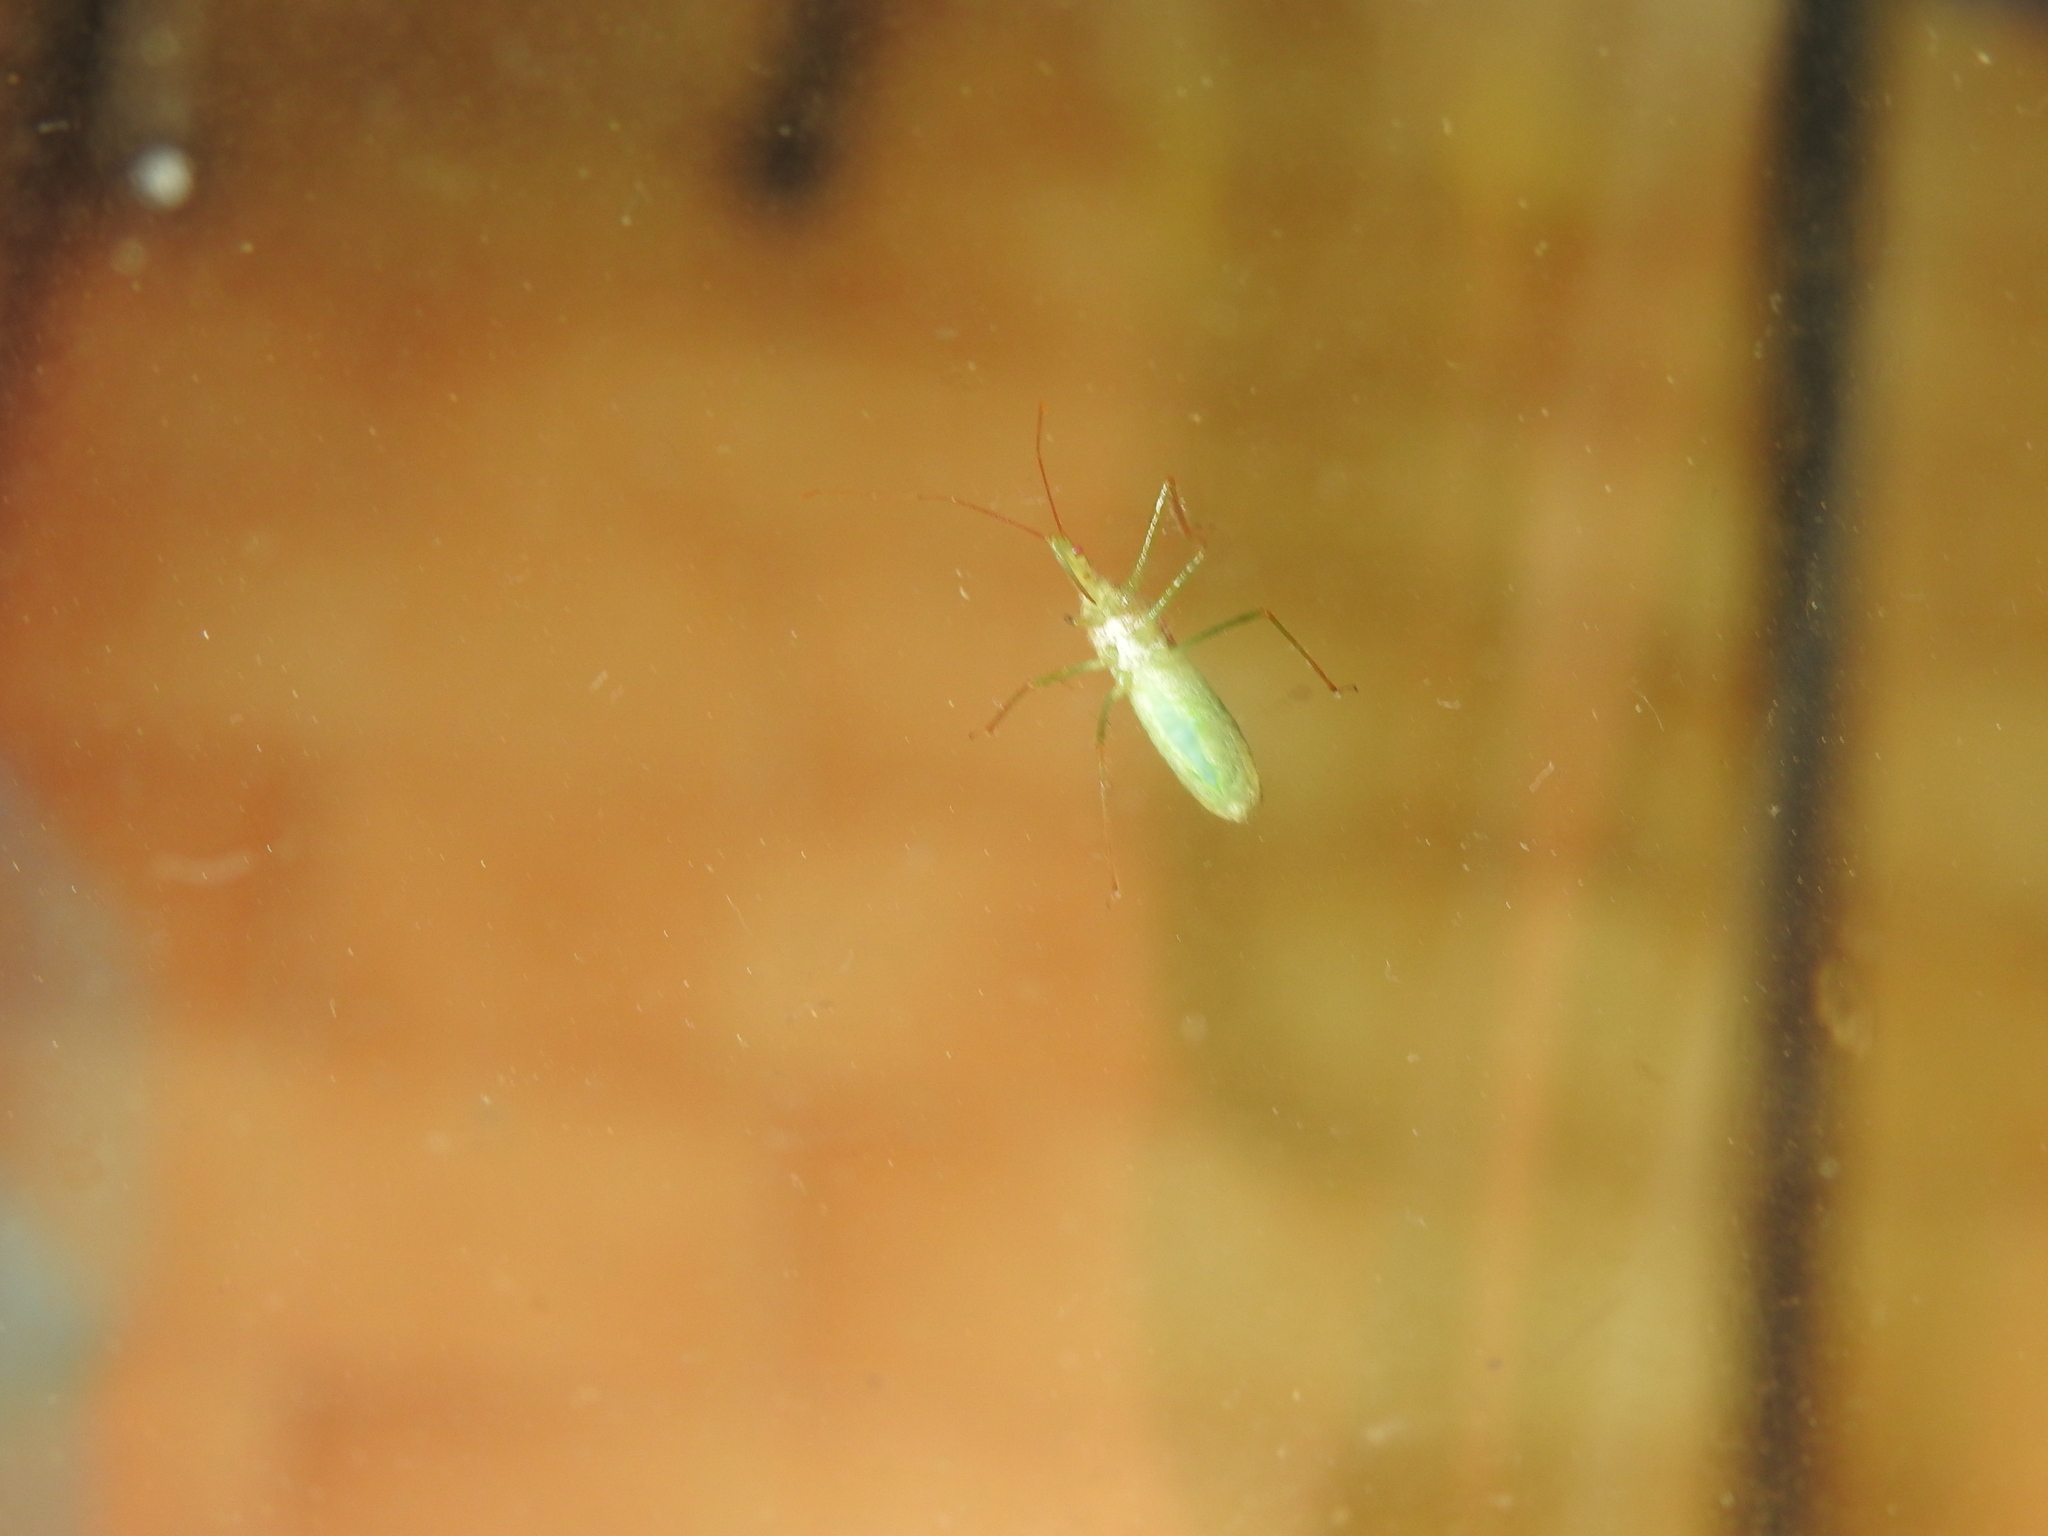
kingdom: Animalia
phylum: Arthropoda
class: Insecta
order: Hemiptera
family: Reduviidae
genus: Zelus
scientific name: Zelus renardii
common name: Assassin bug
